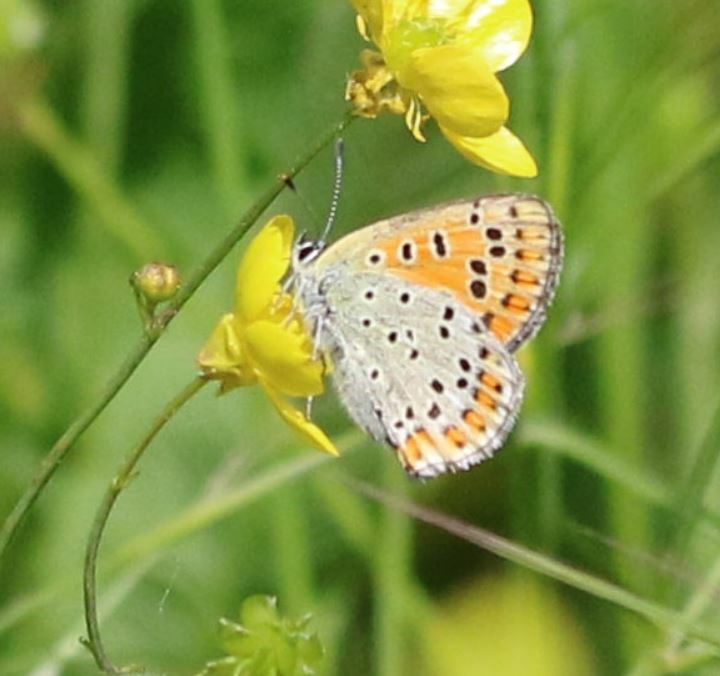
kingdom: Animalia
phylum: Arthropoda
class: Insecta
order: Lepidoptera
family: Lycaenidae
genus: Loweia
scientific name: Loweia tityrus
